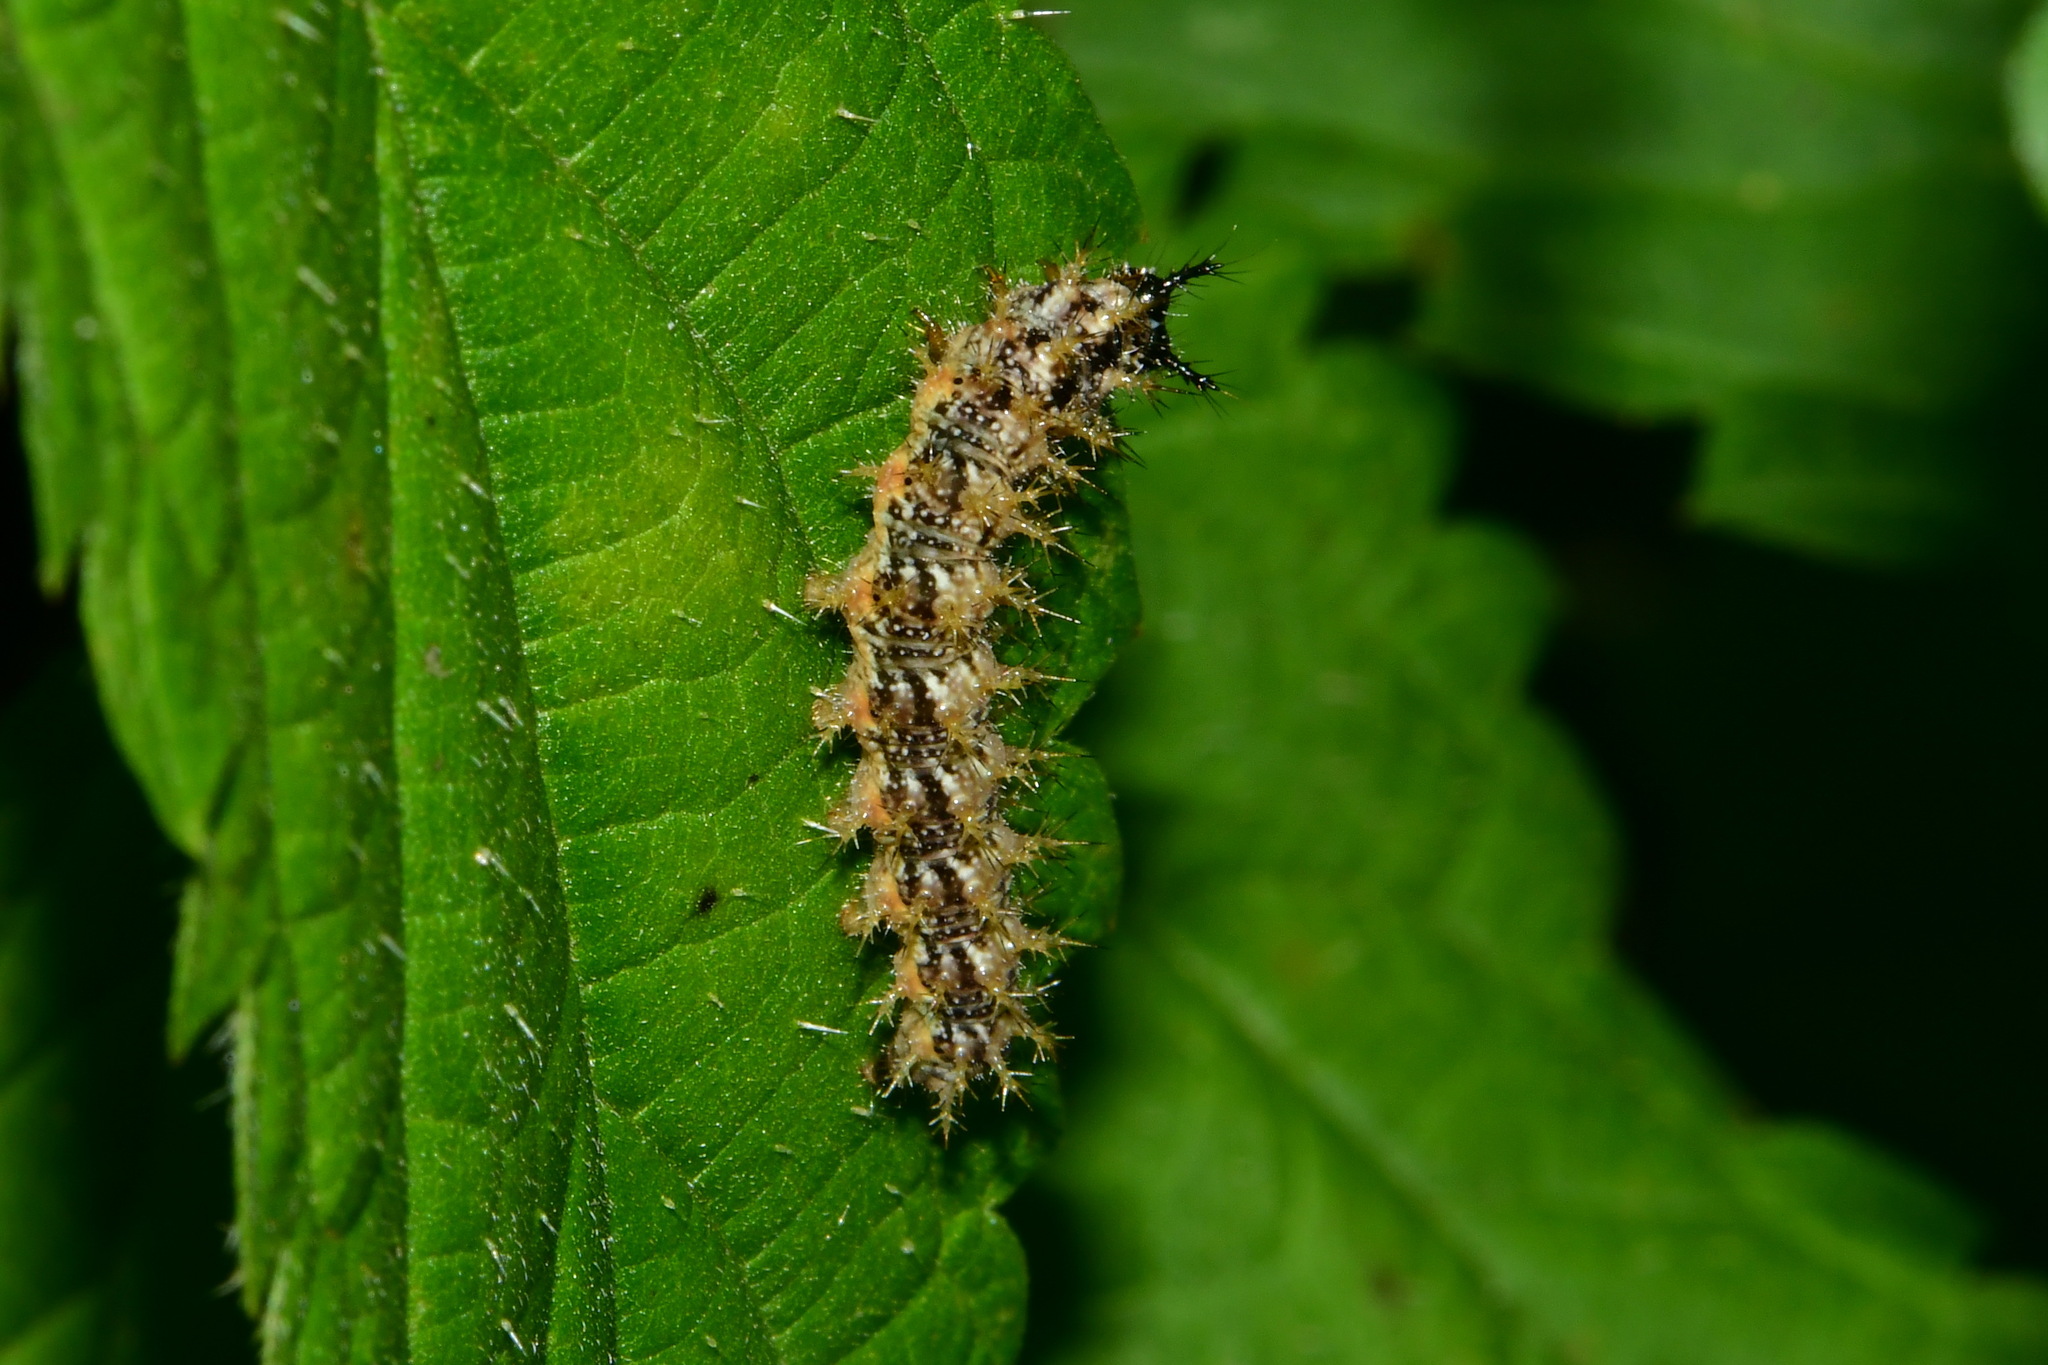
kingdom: Animalia
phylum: Arthropoda
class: Insecta
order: Lepidoptera
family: Nymphalidae
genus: Araschnia
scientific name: Araschnia levana
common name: Map butterfly
